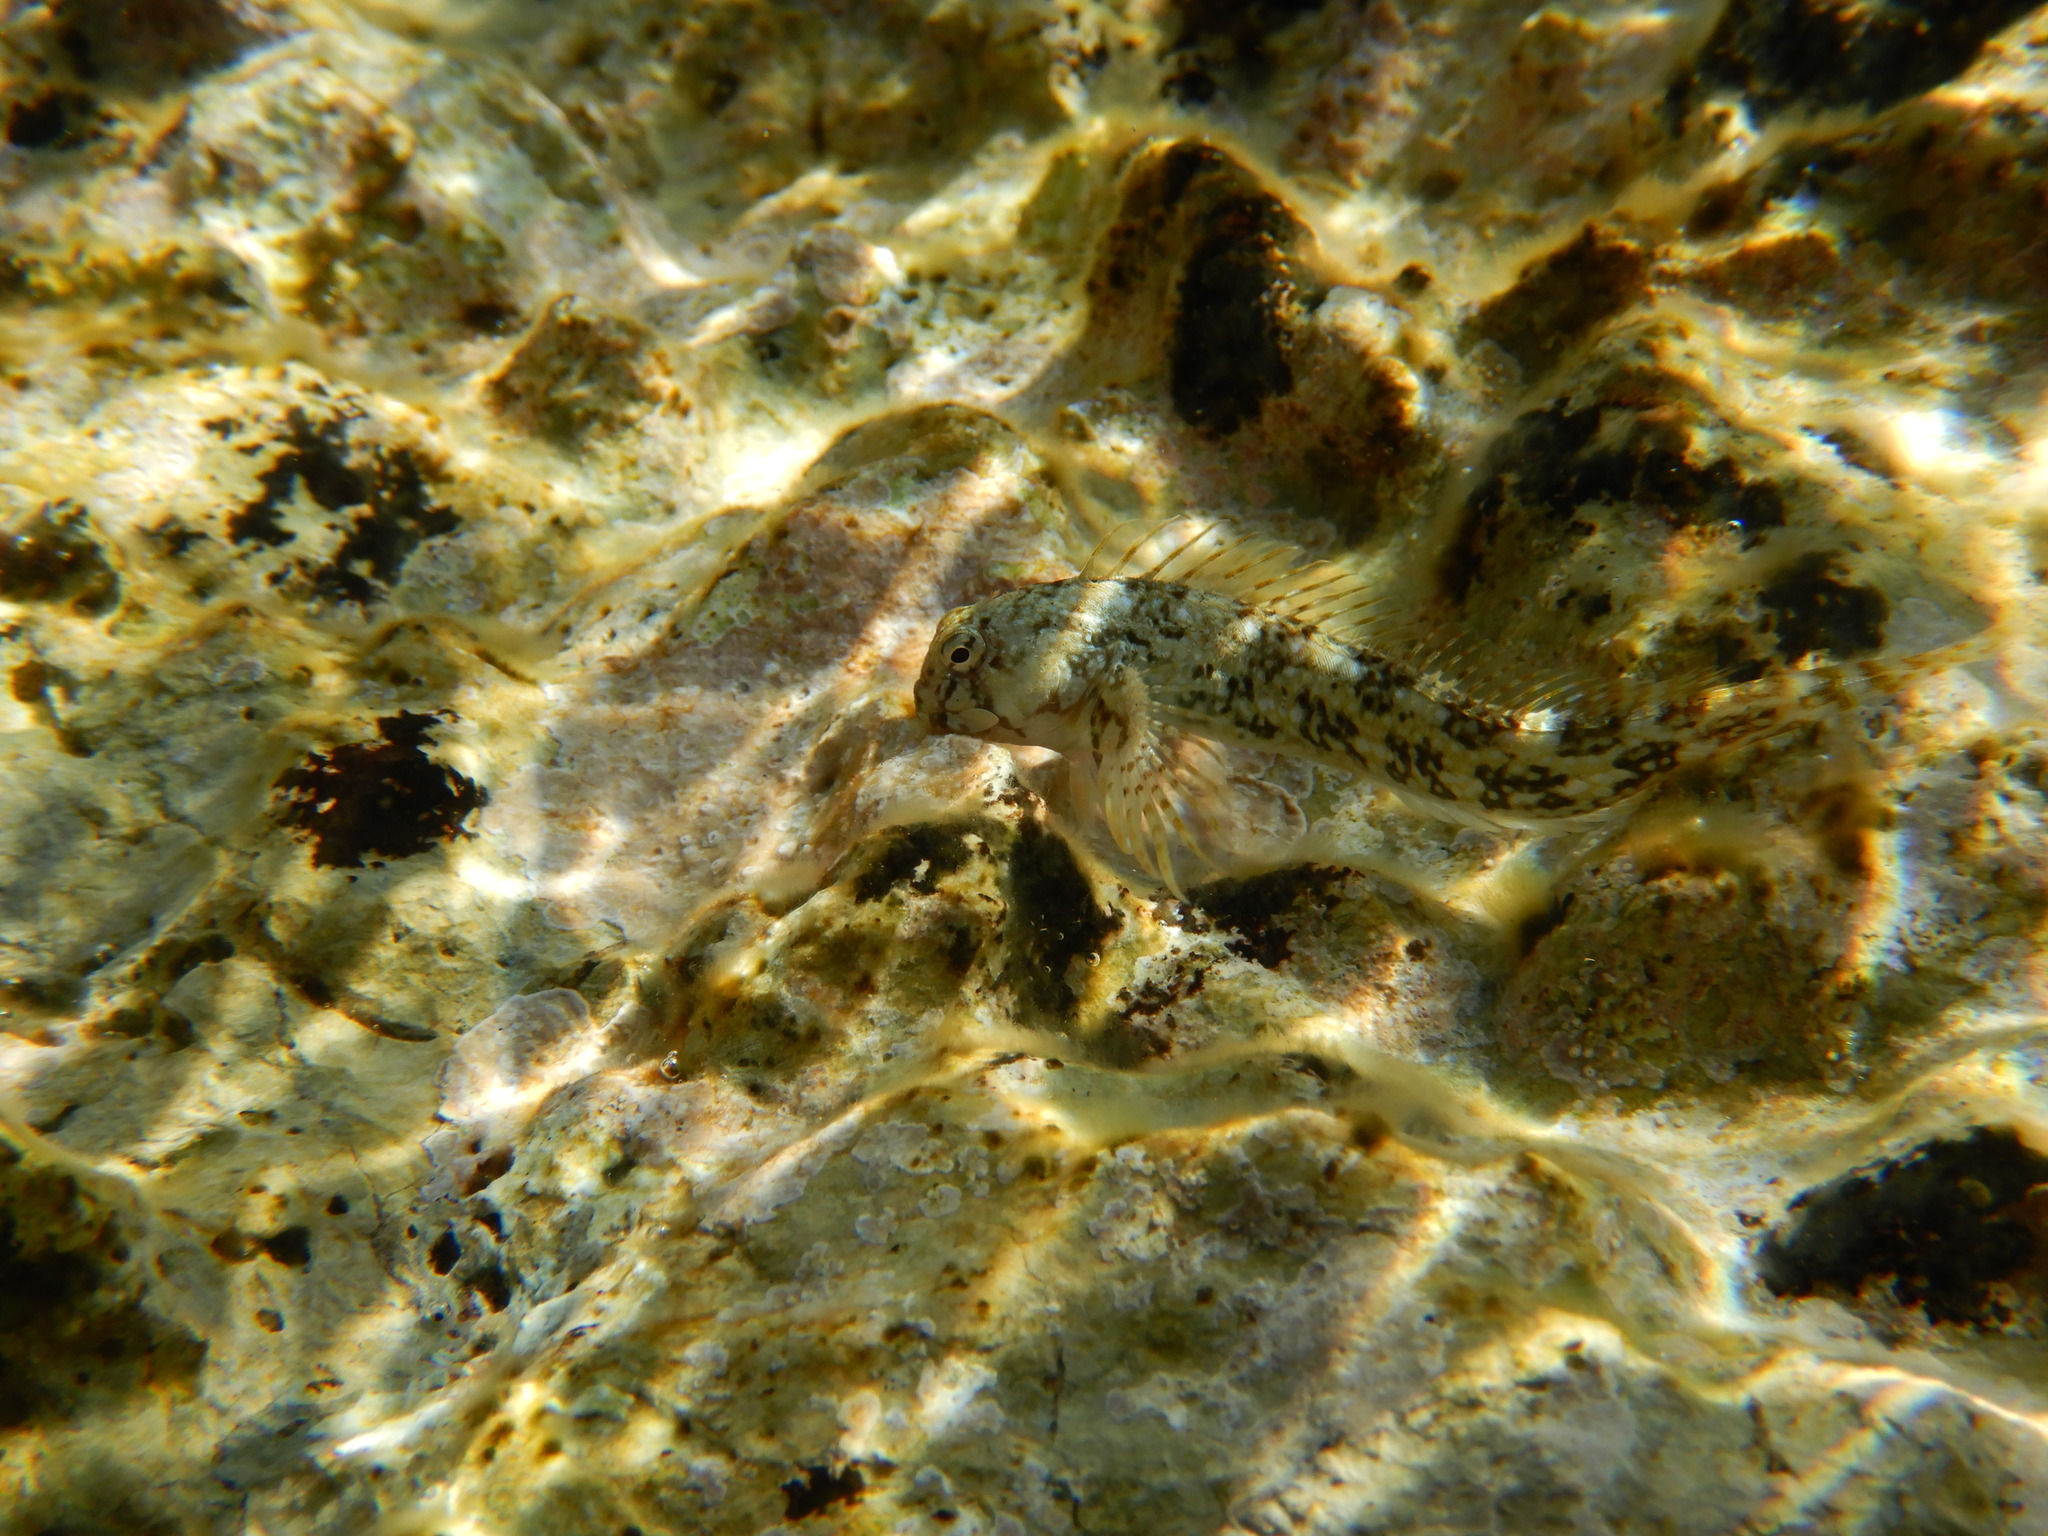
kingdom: Animalia
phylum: Chordata
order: Perciformes
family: Blenniidae
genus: Coryphoblennius
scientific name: Coryphoblennius galerita
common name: Montagu's blenny
